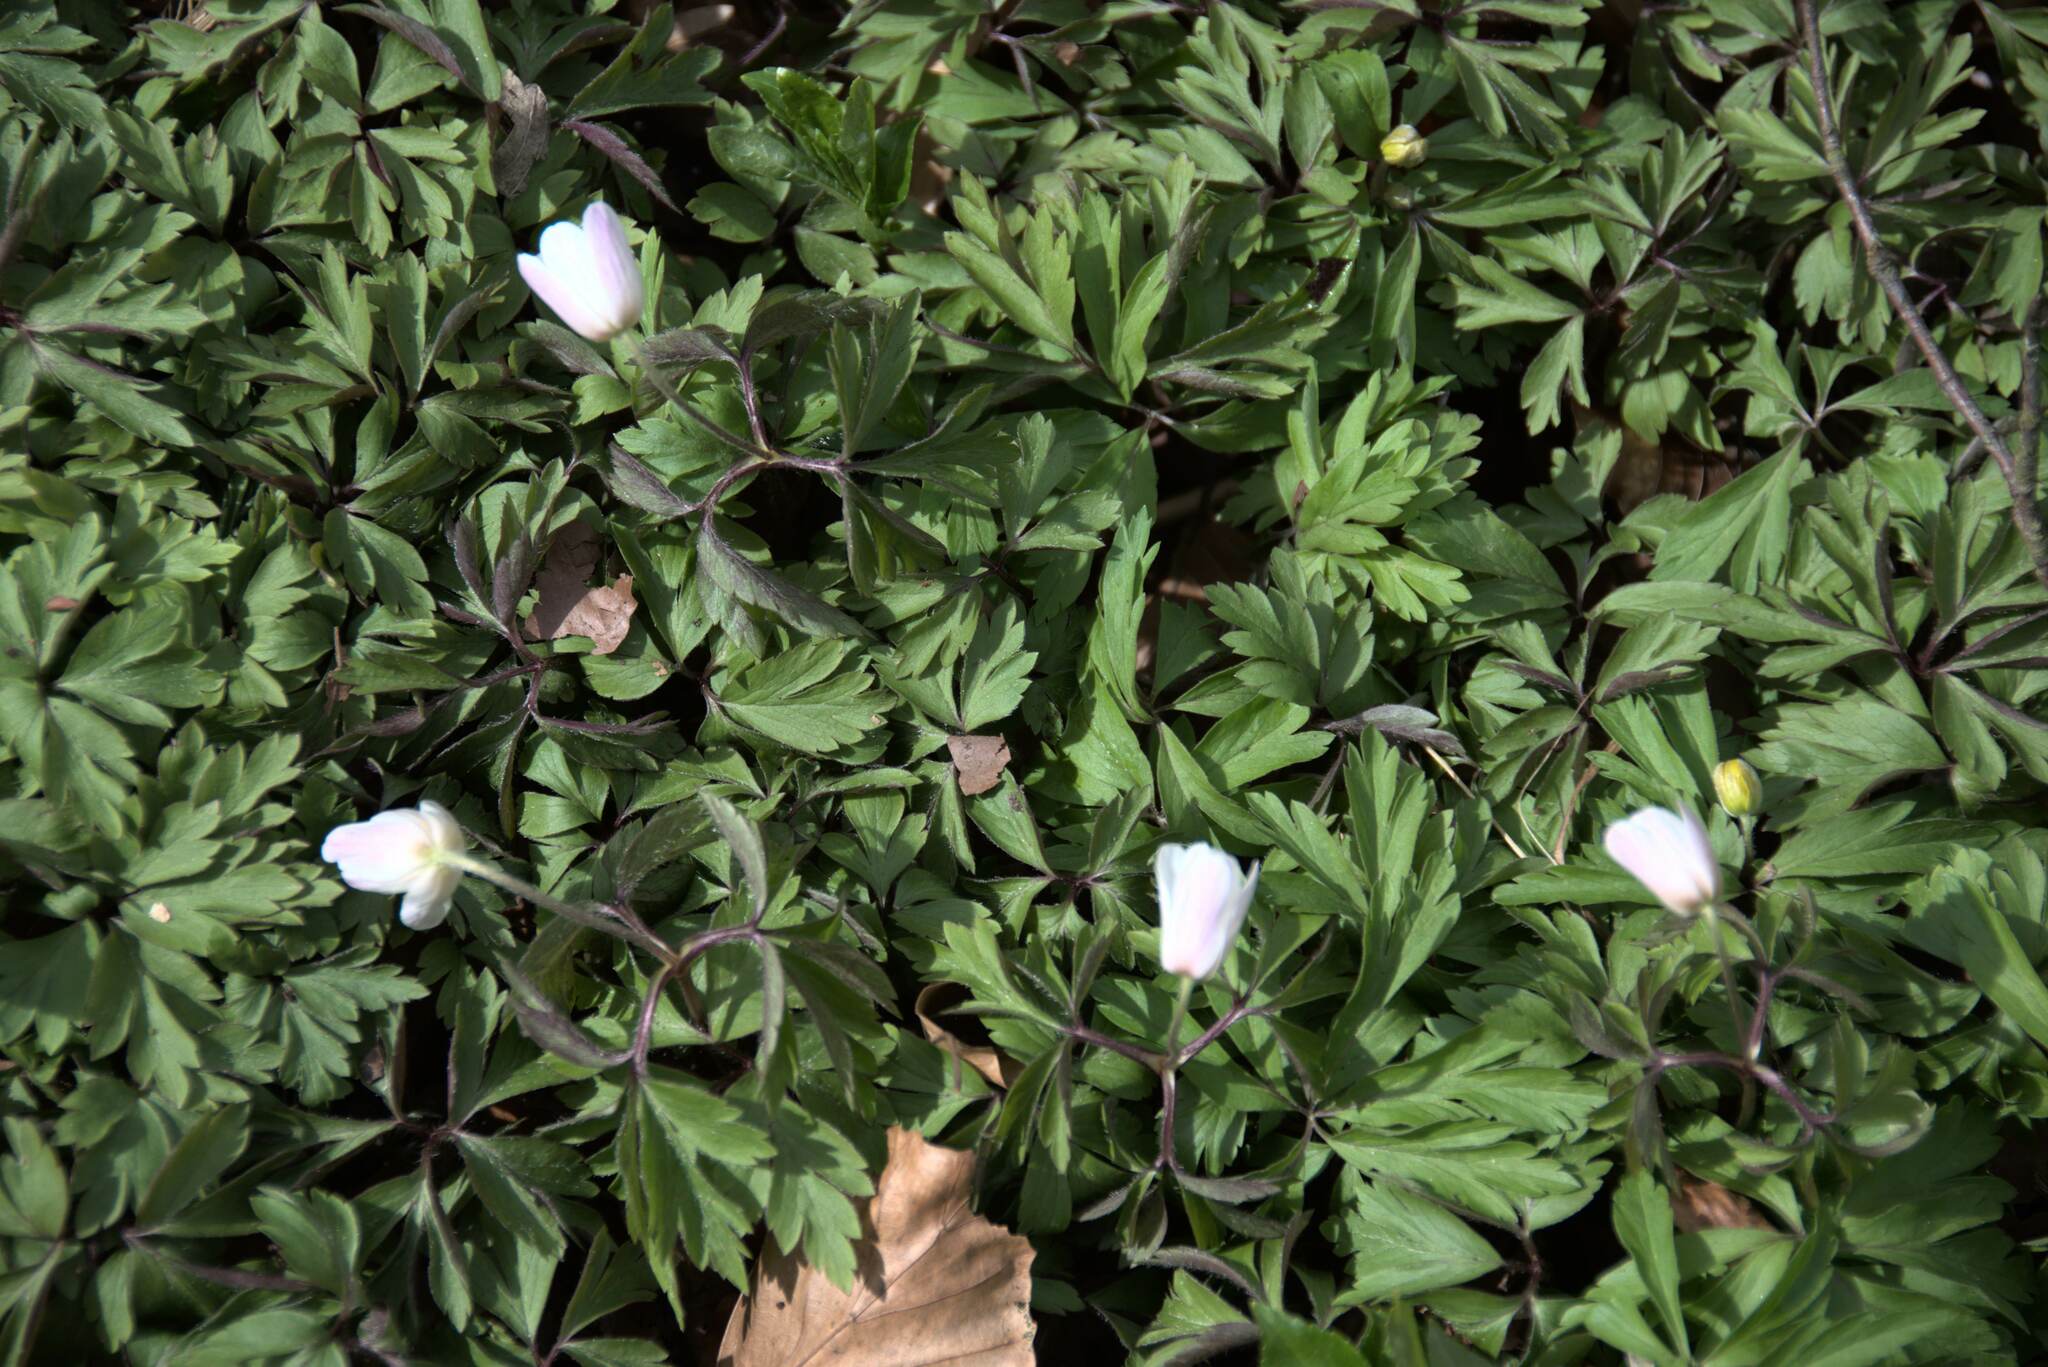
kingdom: Plantae
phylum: Tracheophyta
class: Magnoliopsida
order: Ranunculales
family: Ranunculaceae
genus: Anemone
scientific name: Anemone nemorosa
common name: Wood anemone
